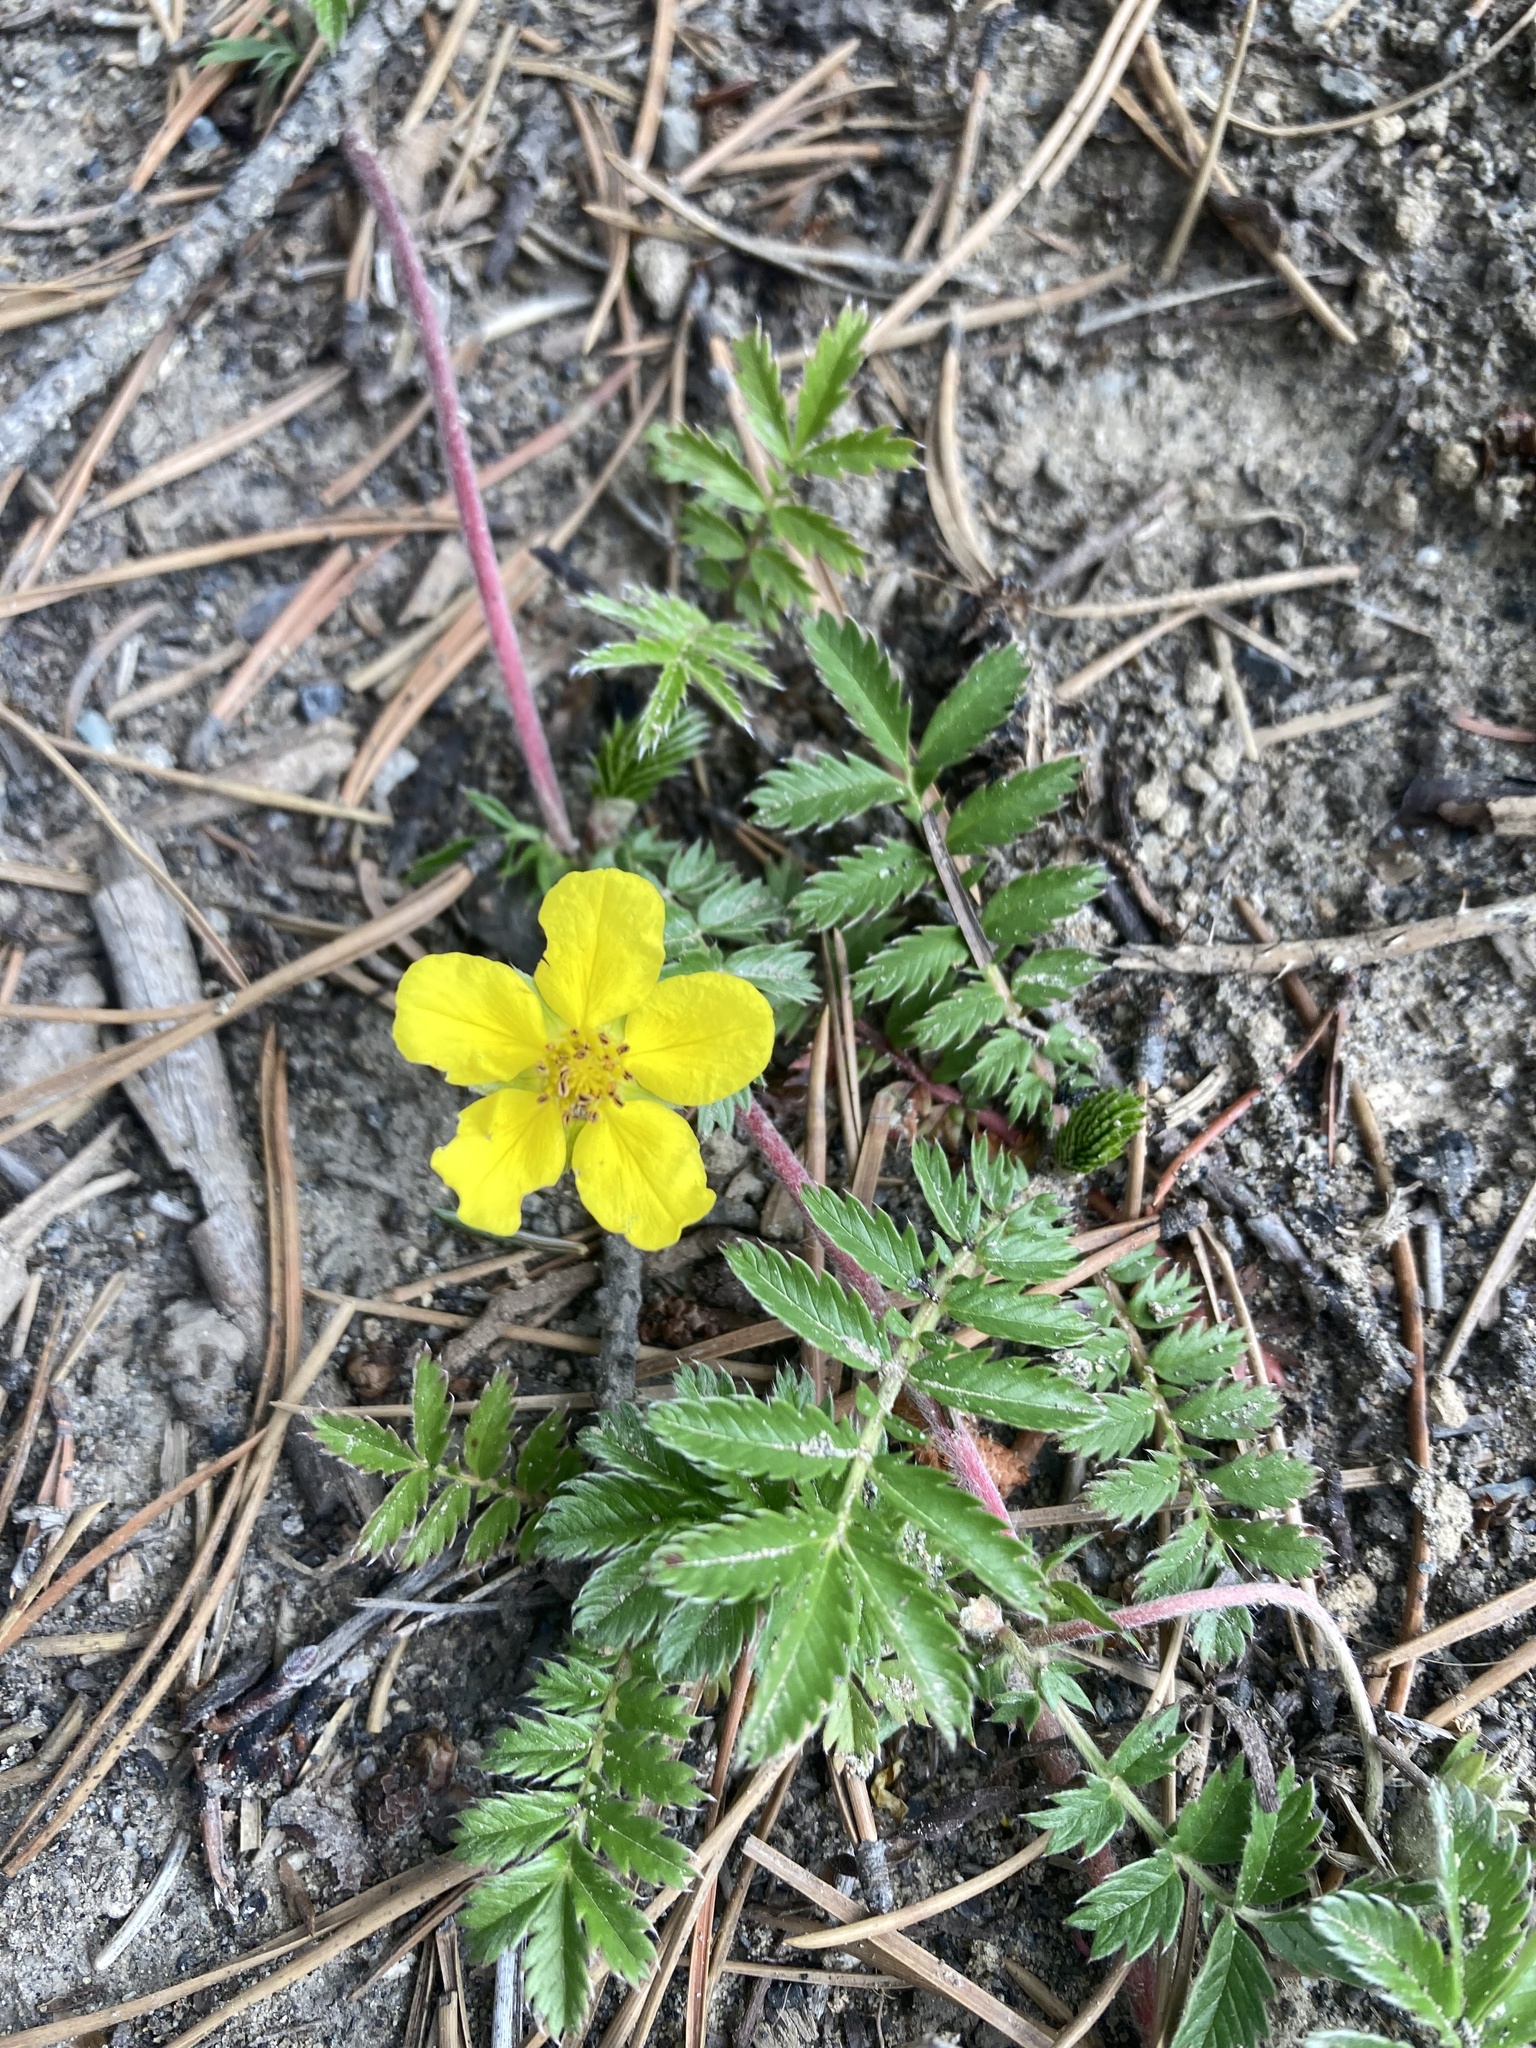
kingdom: Plantae
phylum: Tracheophyta
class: Magnoliopsida
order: Rosales
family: Rosaceae
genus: Argentina
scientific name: Argentina anserina
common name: Common silverweed
